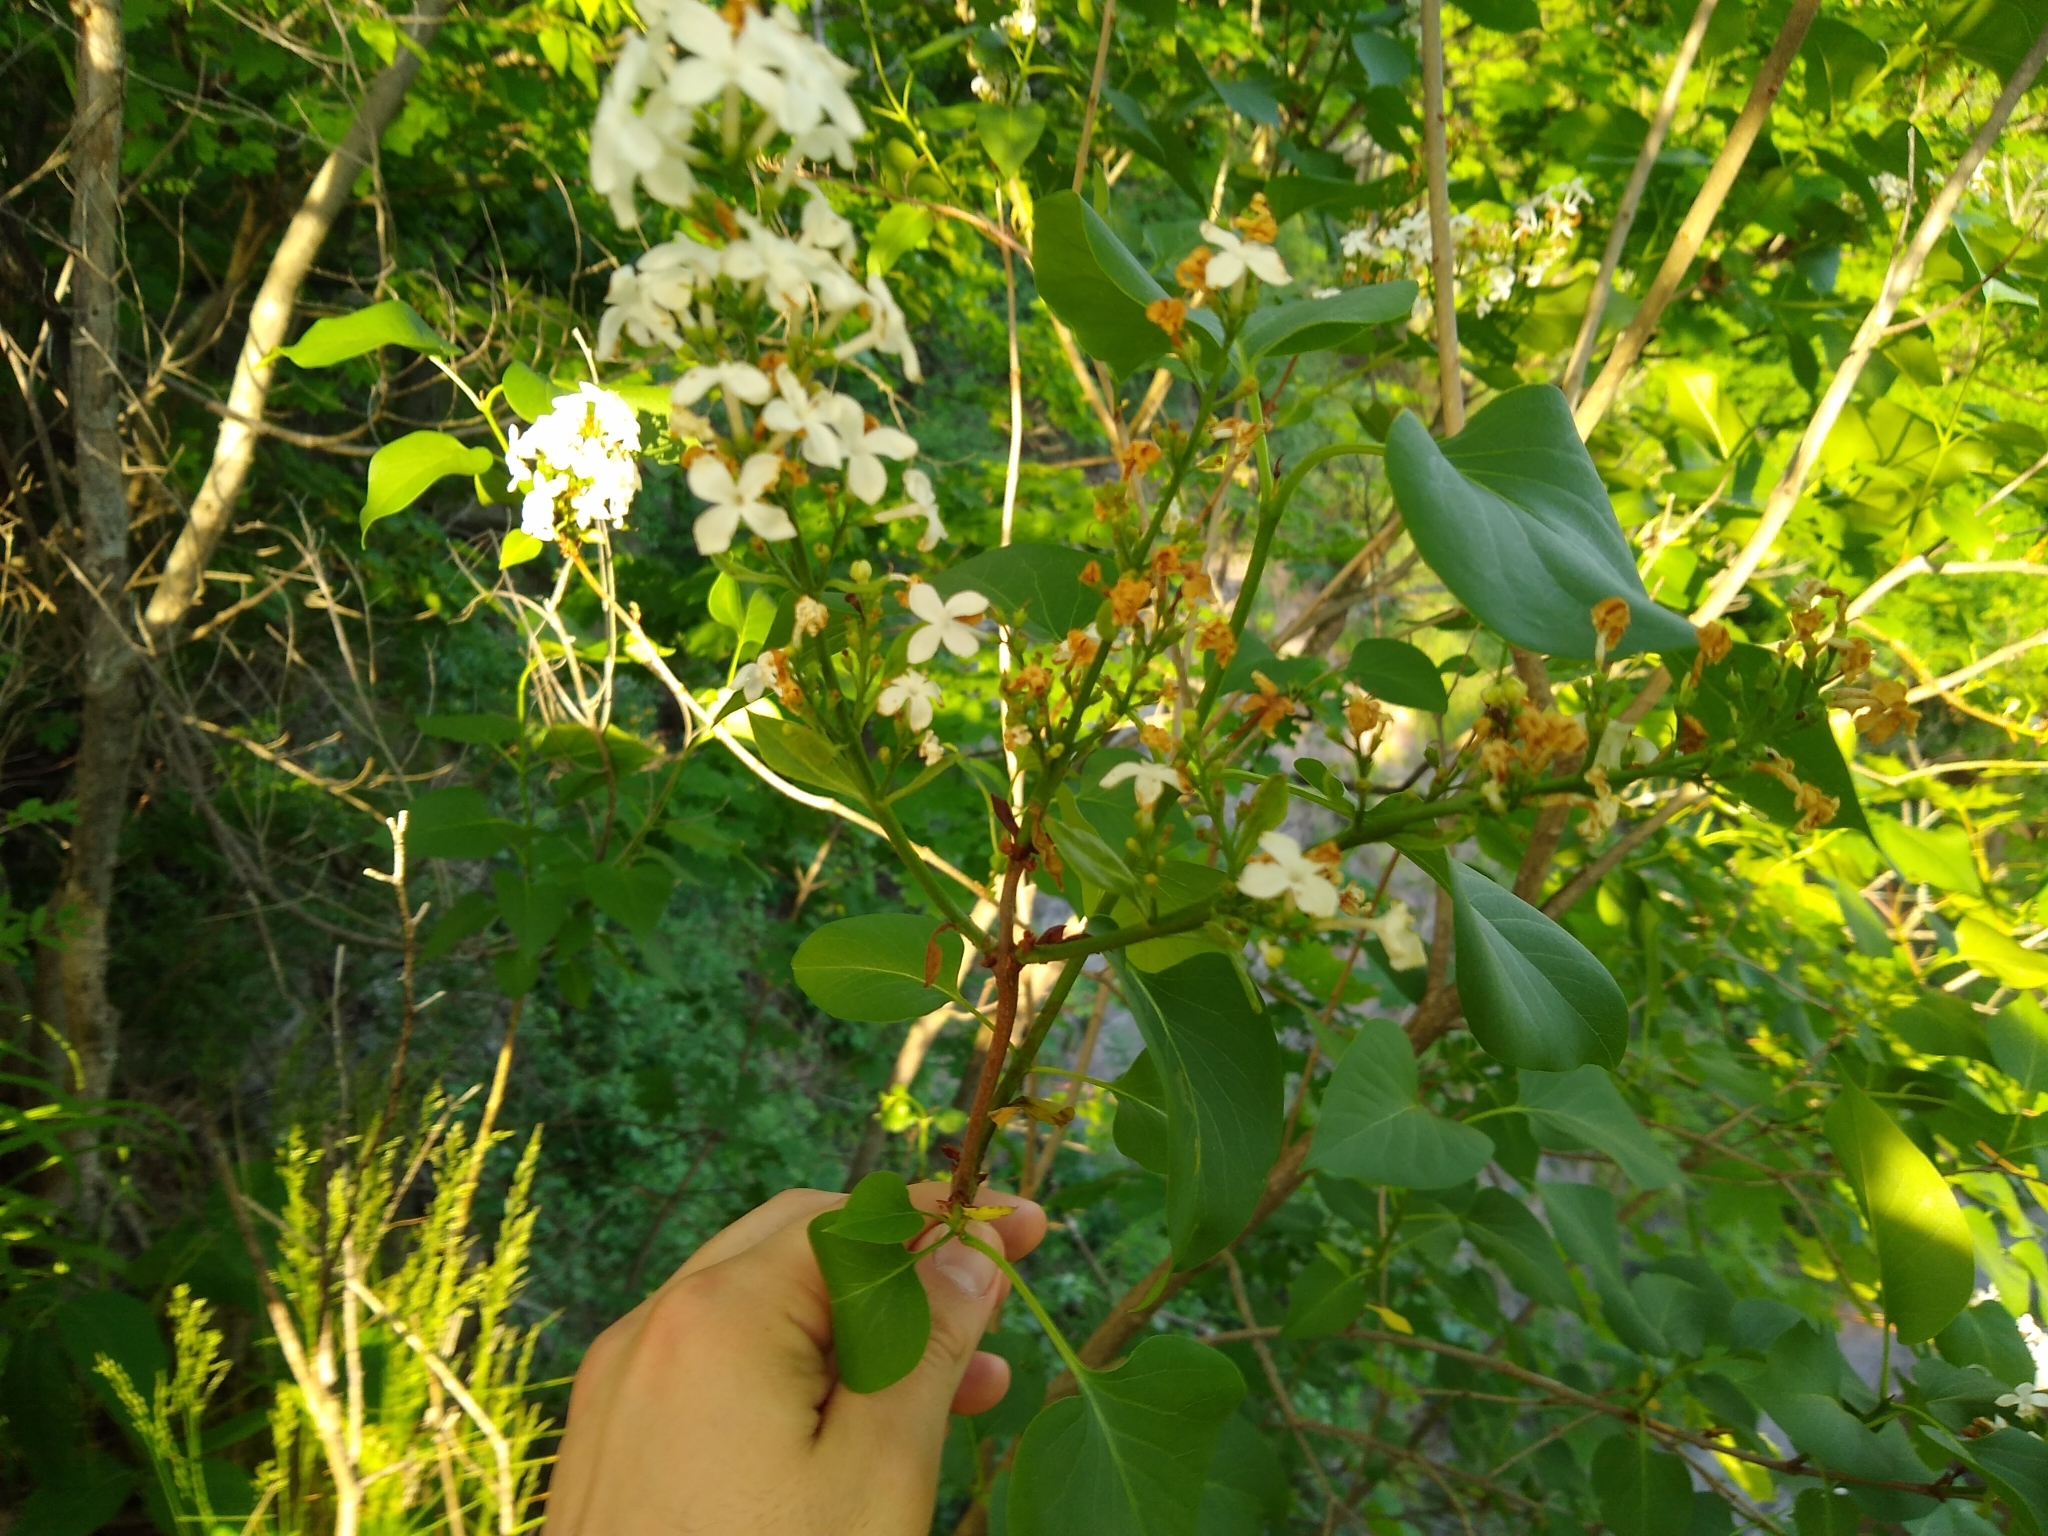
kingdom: Plantae
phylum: Tracheophyta
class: Magnoliopsida
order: Lamiales
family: Oleaceae
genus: Syringa
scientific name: Syringa vulgaris
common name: Common lilac
